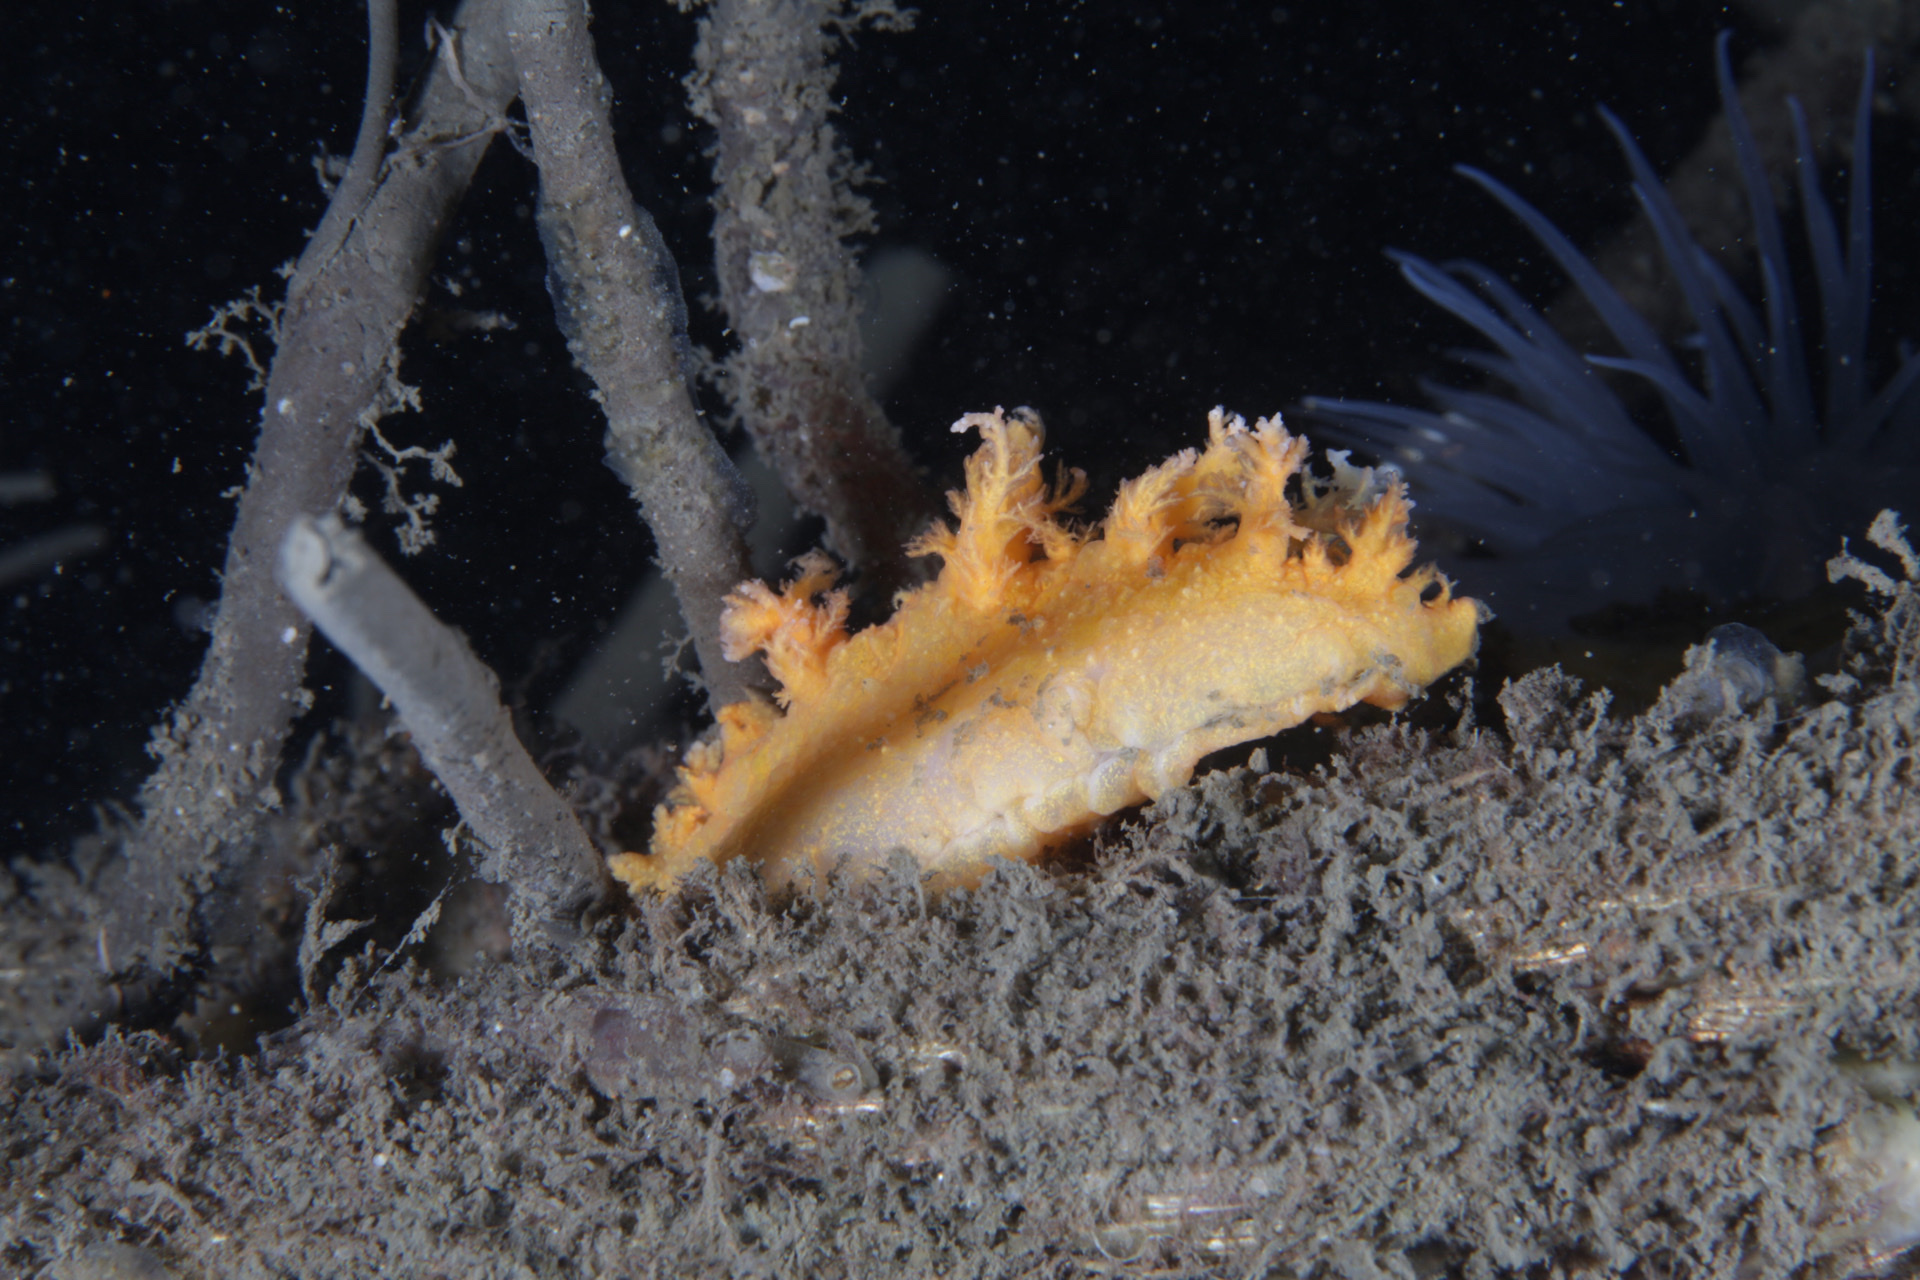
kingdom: Animalia
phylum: Mollusca
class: Gastropoda
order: Nudibranchia
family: Dendronotidae
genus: Dendronotus
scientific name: Dendronotus frondosus
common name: Bushy-backed nudibranch
